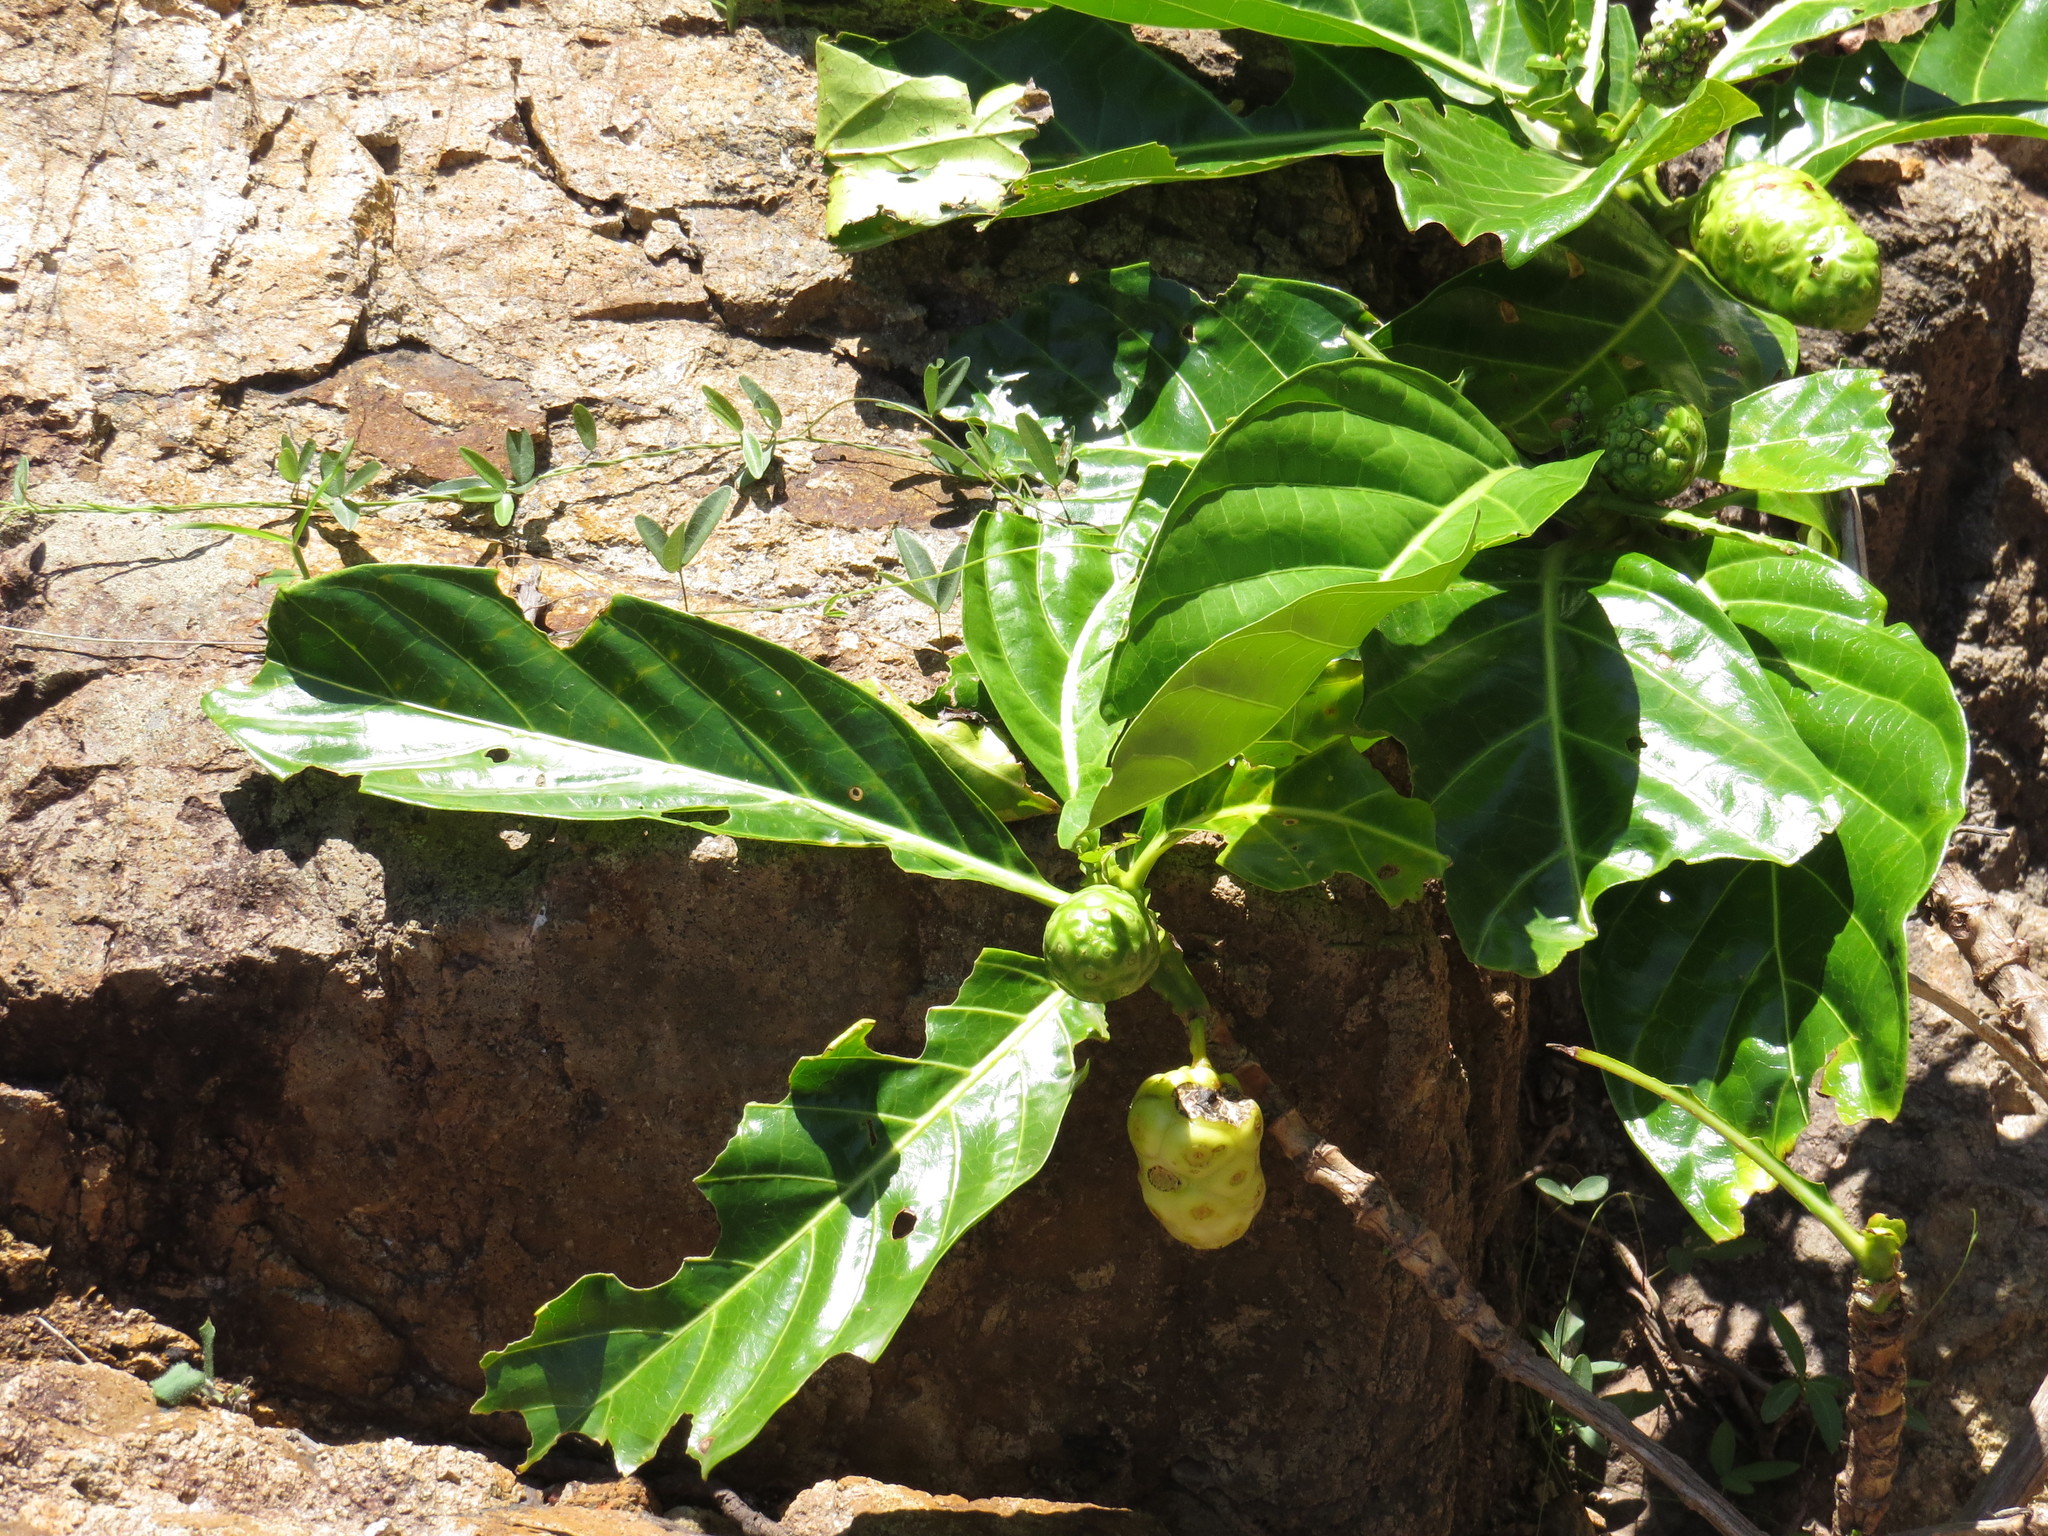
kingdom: Plantae
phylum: Tracheophyta
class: Magnoliopsida
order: Gentianales
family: Rubiaceae
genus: Morinda
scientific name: Morinda citrifolia
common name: Indian-mulberry
